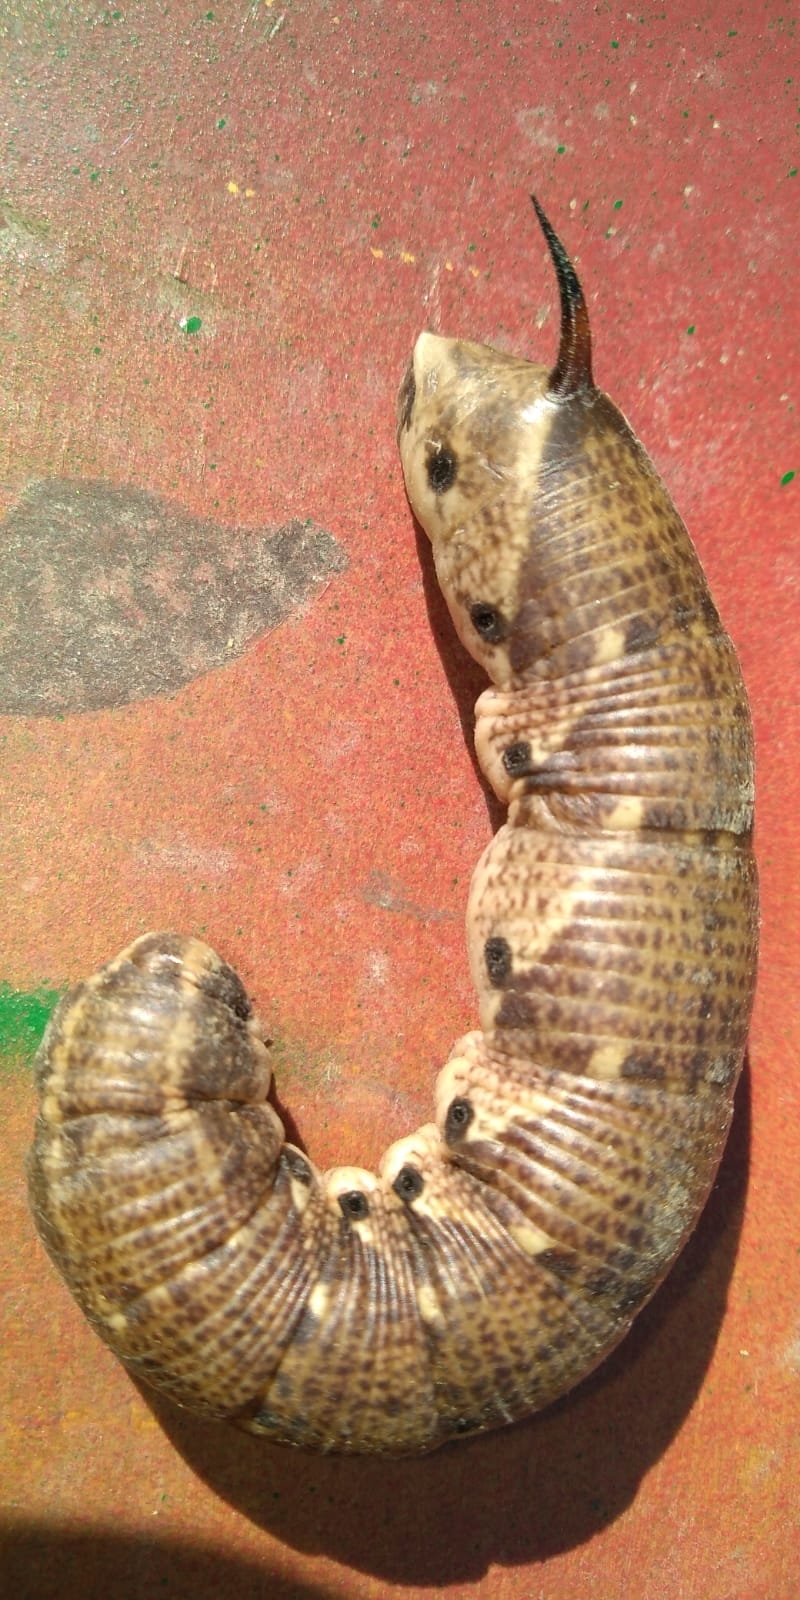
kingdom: Animalia
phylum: Arthropoda
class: Insecta
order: Lepidoptera
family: Sphingidae
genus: Agrius
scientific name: Agrius convolvuli
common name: Convolvulus hawkmoth
